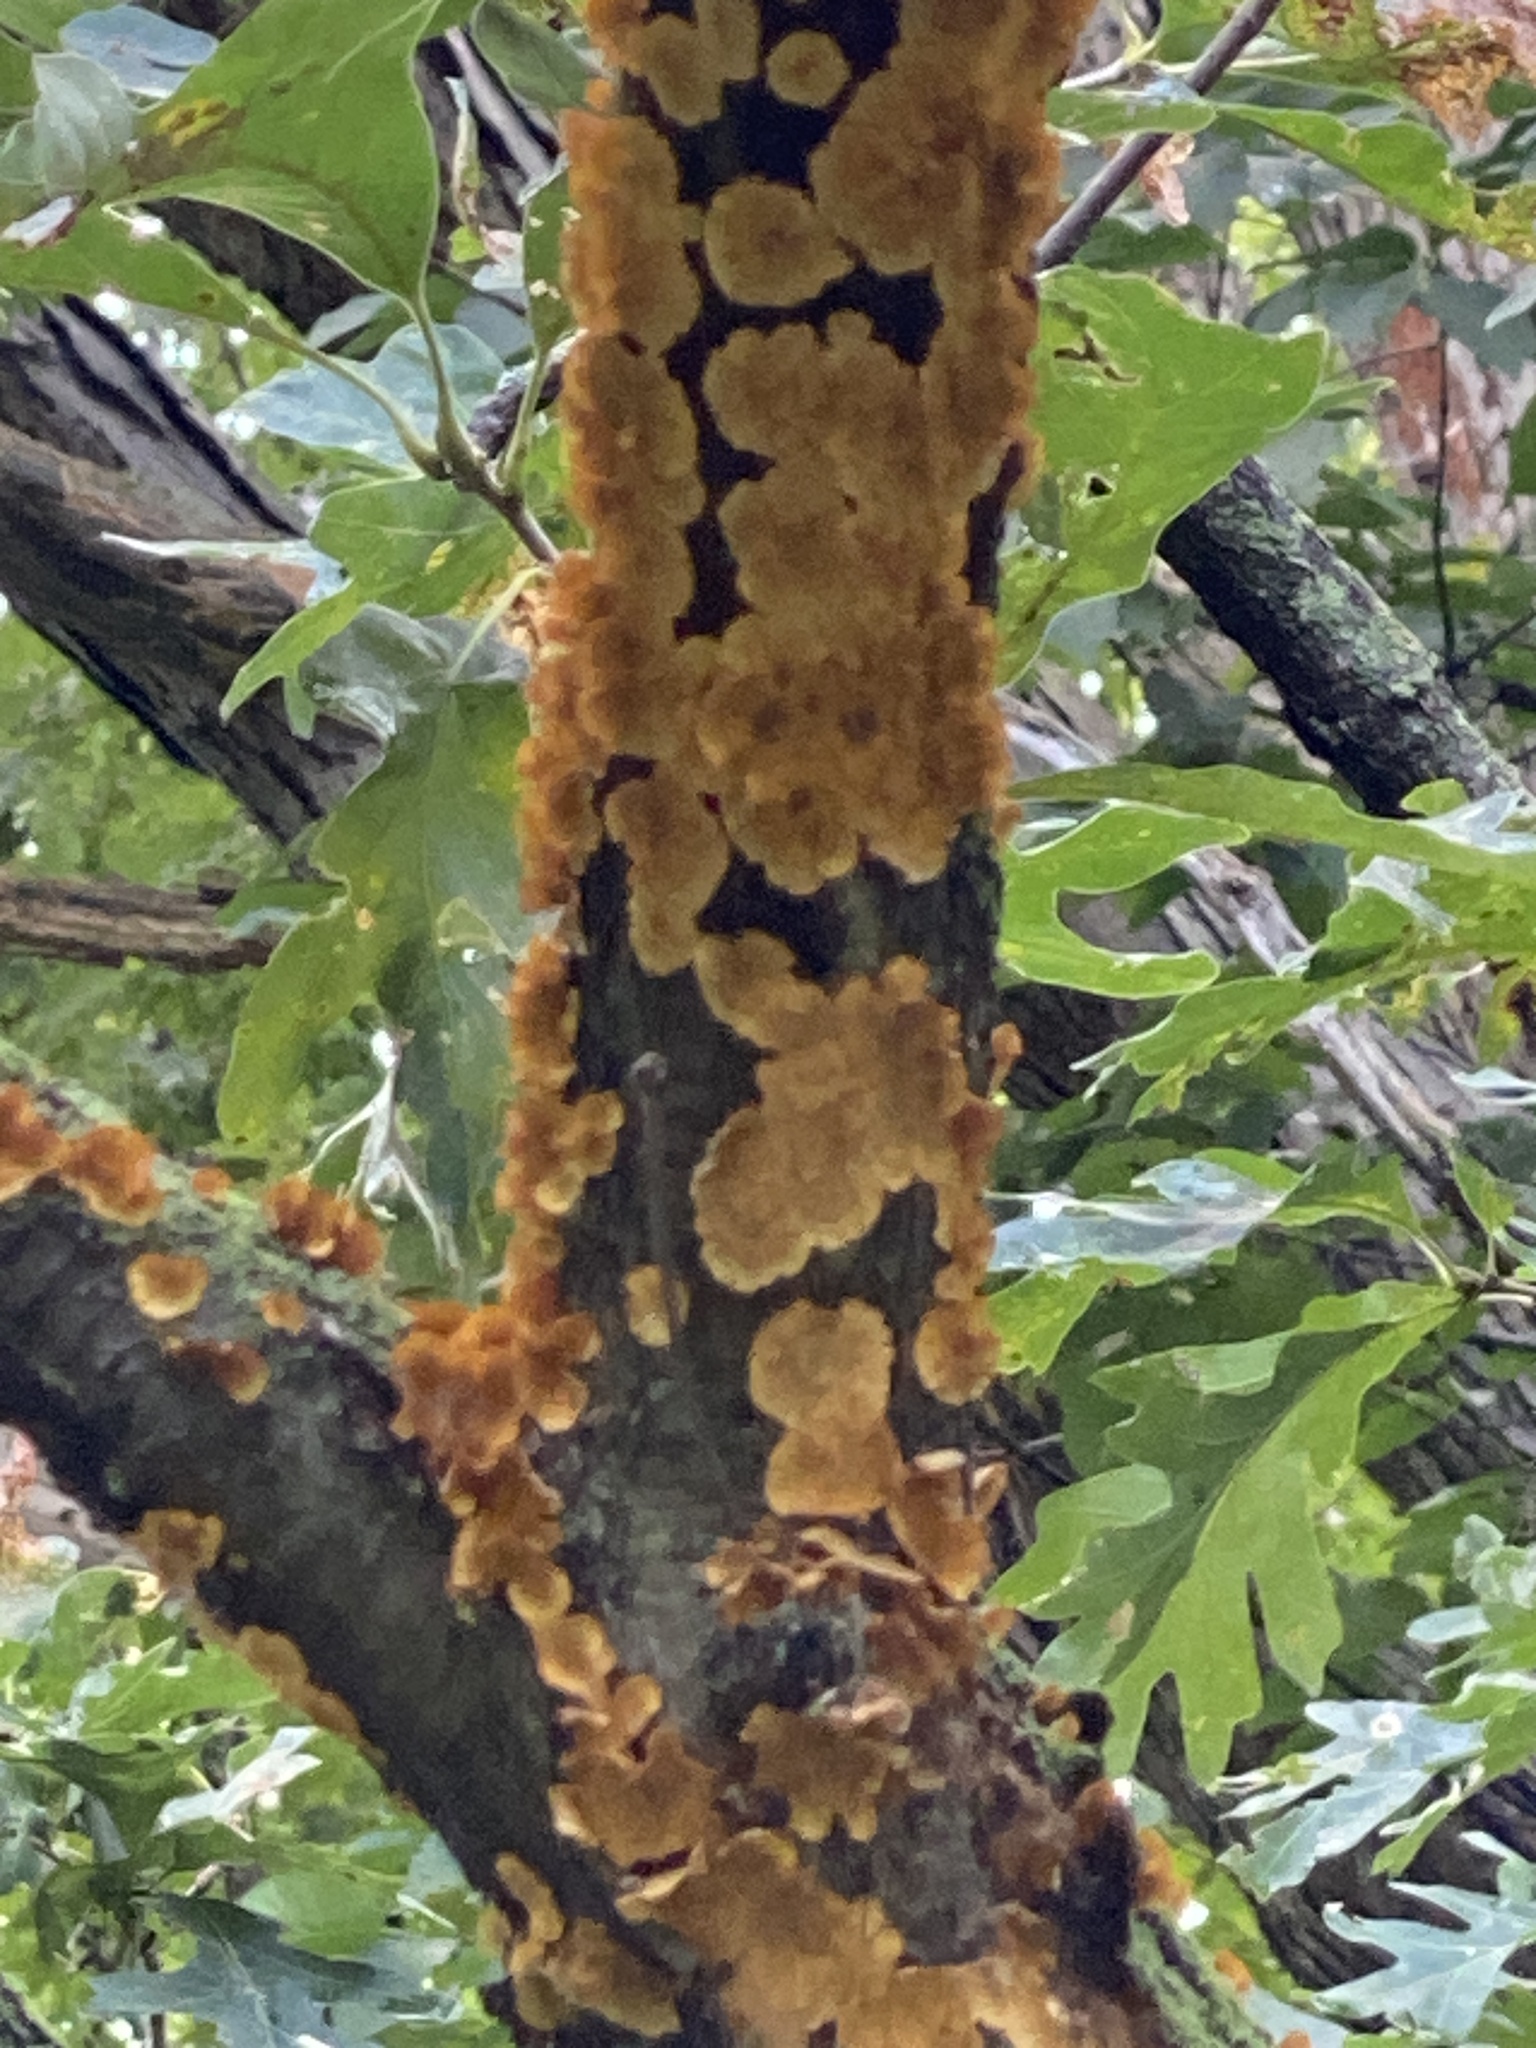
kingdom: Fungi
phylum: Basidiomycota
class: Agaricomycetes
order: Russulales
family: Stereaceae
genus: Stereum
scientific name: Stereum complicatum
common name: Crowded parchment
